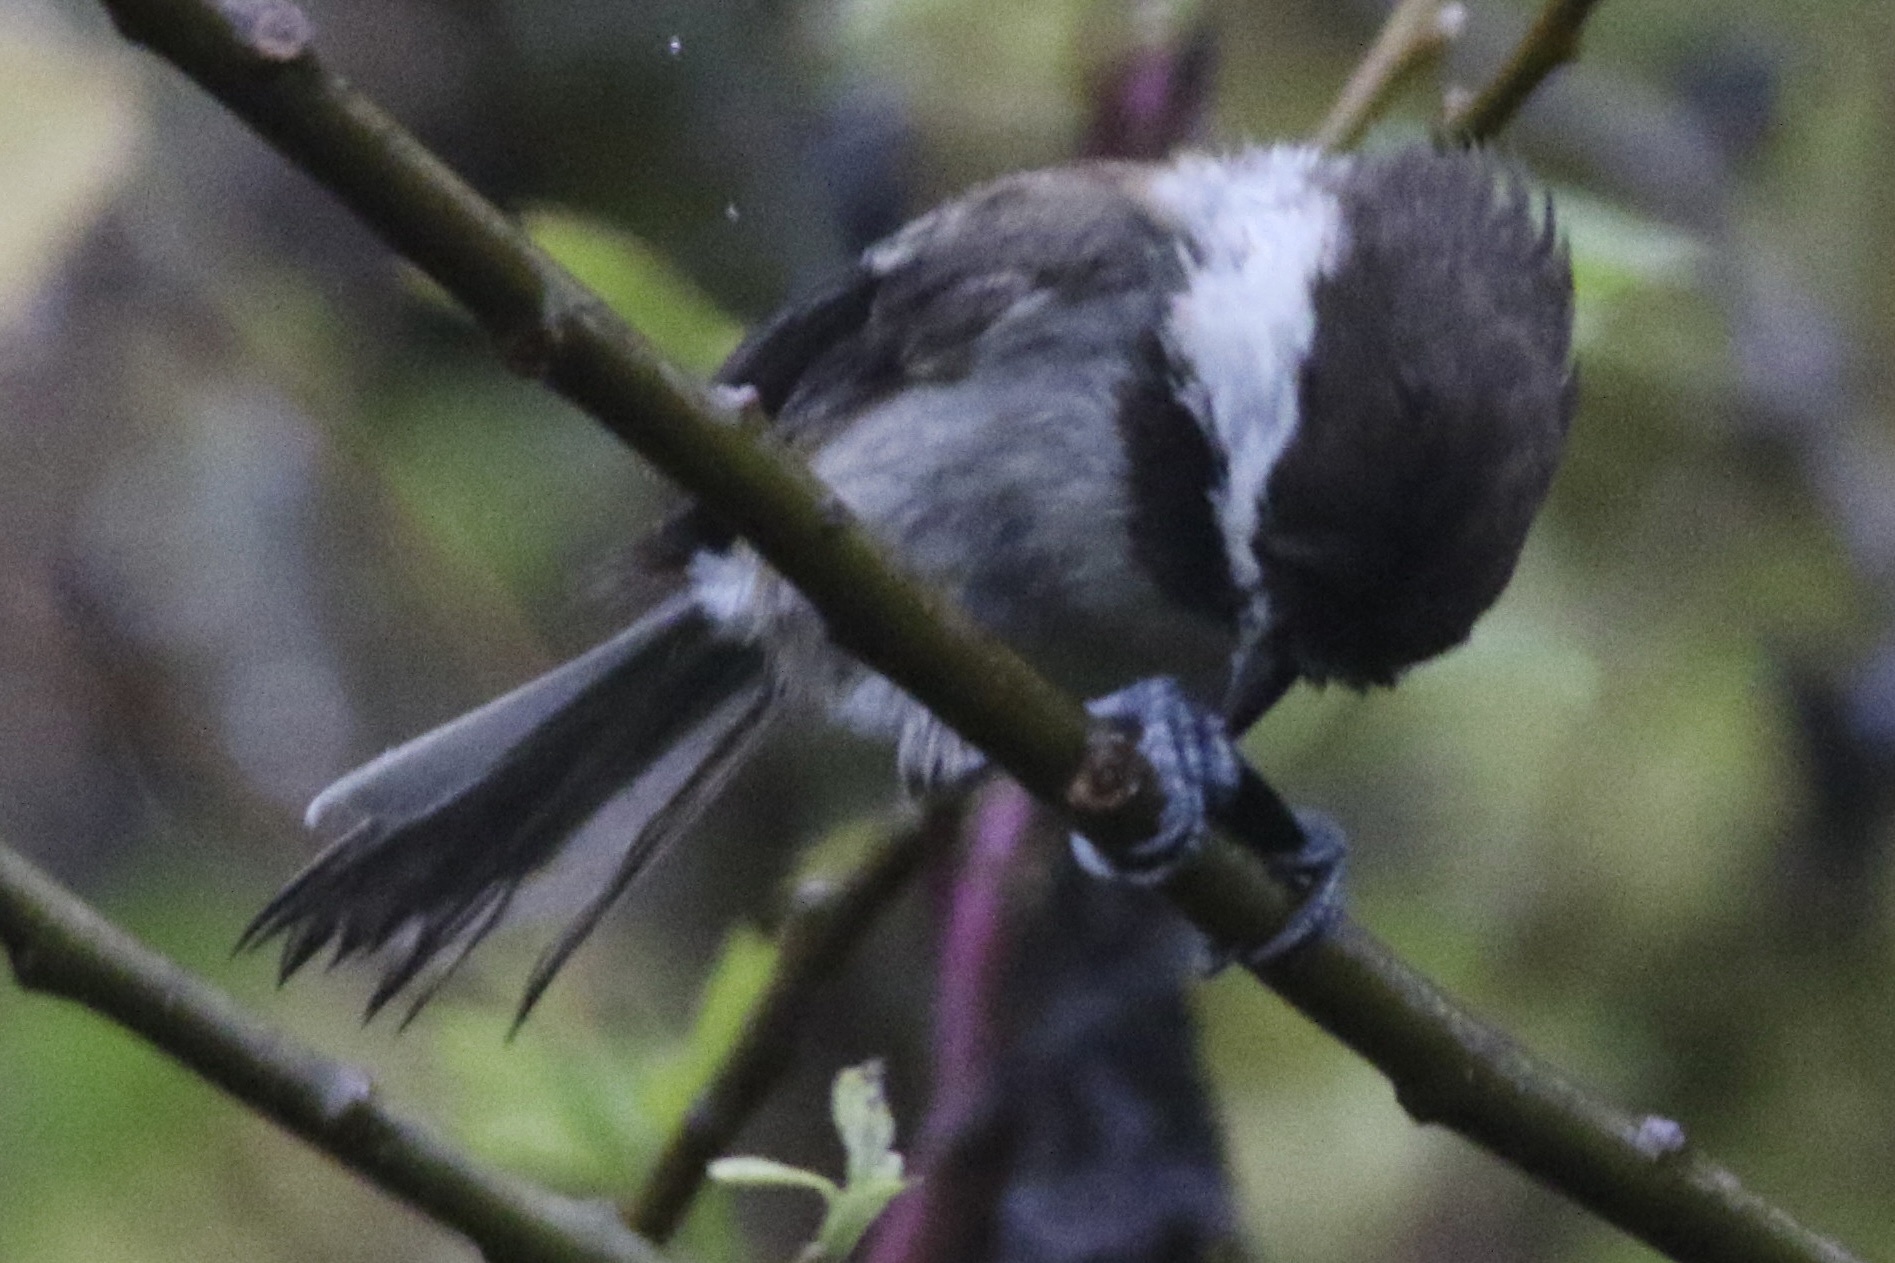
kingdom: Animalia
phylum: Chordata
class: Aves
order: Passeriformes
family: Paridae
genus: Poecile
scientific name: Poecile rufescens
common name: Chestnut-backed chickadee
